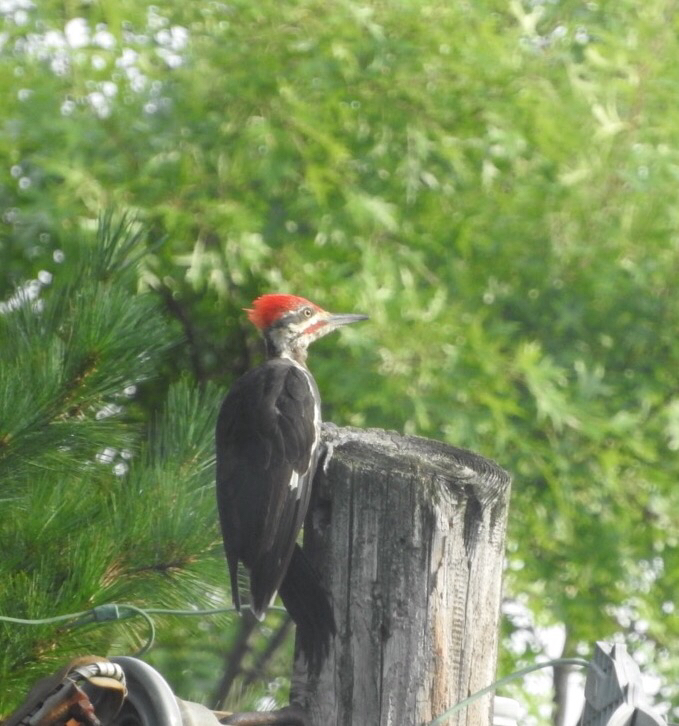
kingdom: Animalia
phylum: Chordata
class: Aves
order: Piciformes
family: Picidae
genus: Dryocopus
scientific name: Dryocopus pileatus
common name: Pileated woodpecker
